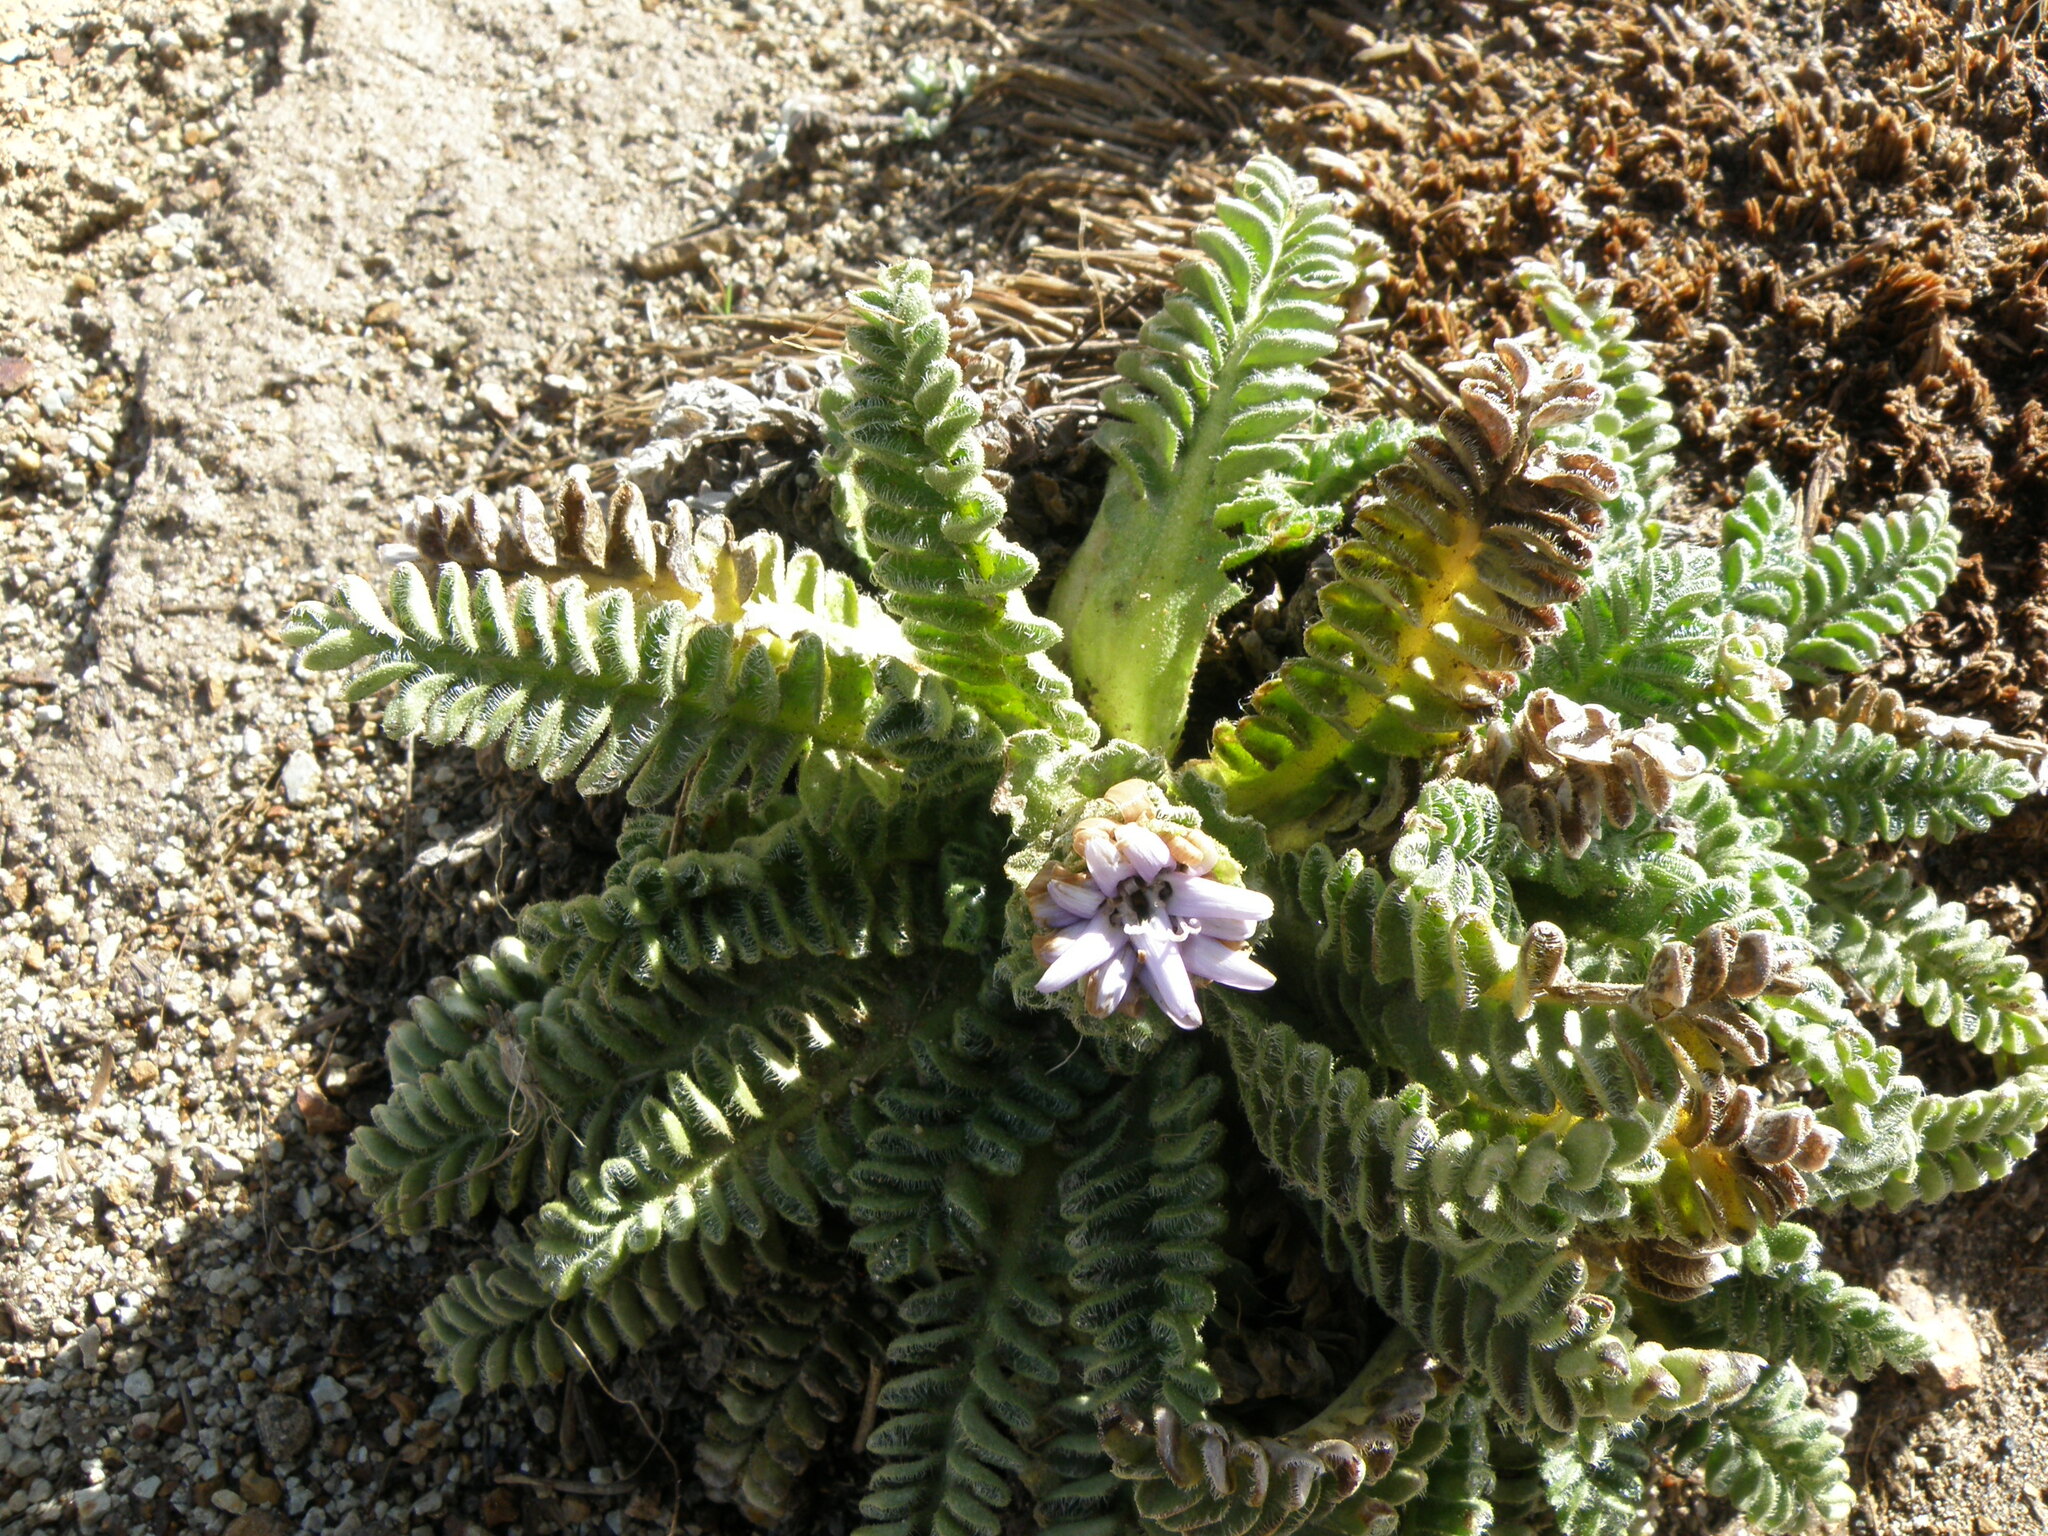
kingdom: Plantae
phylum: Tracheophyta
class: Magnoliopsida
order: Asterales
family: Asteraceae
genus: Perezia
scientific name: Perezia pinnatifida
